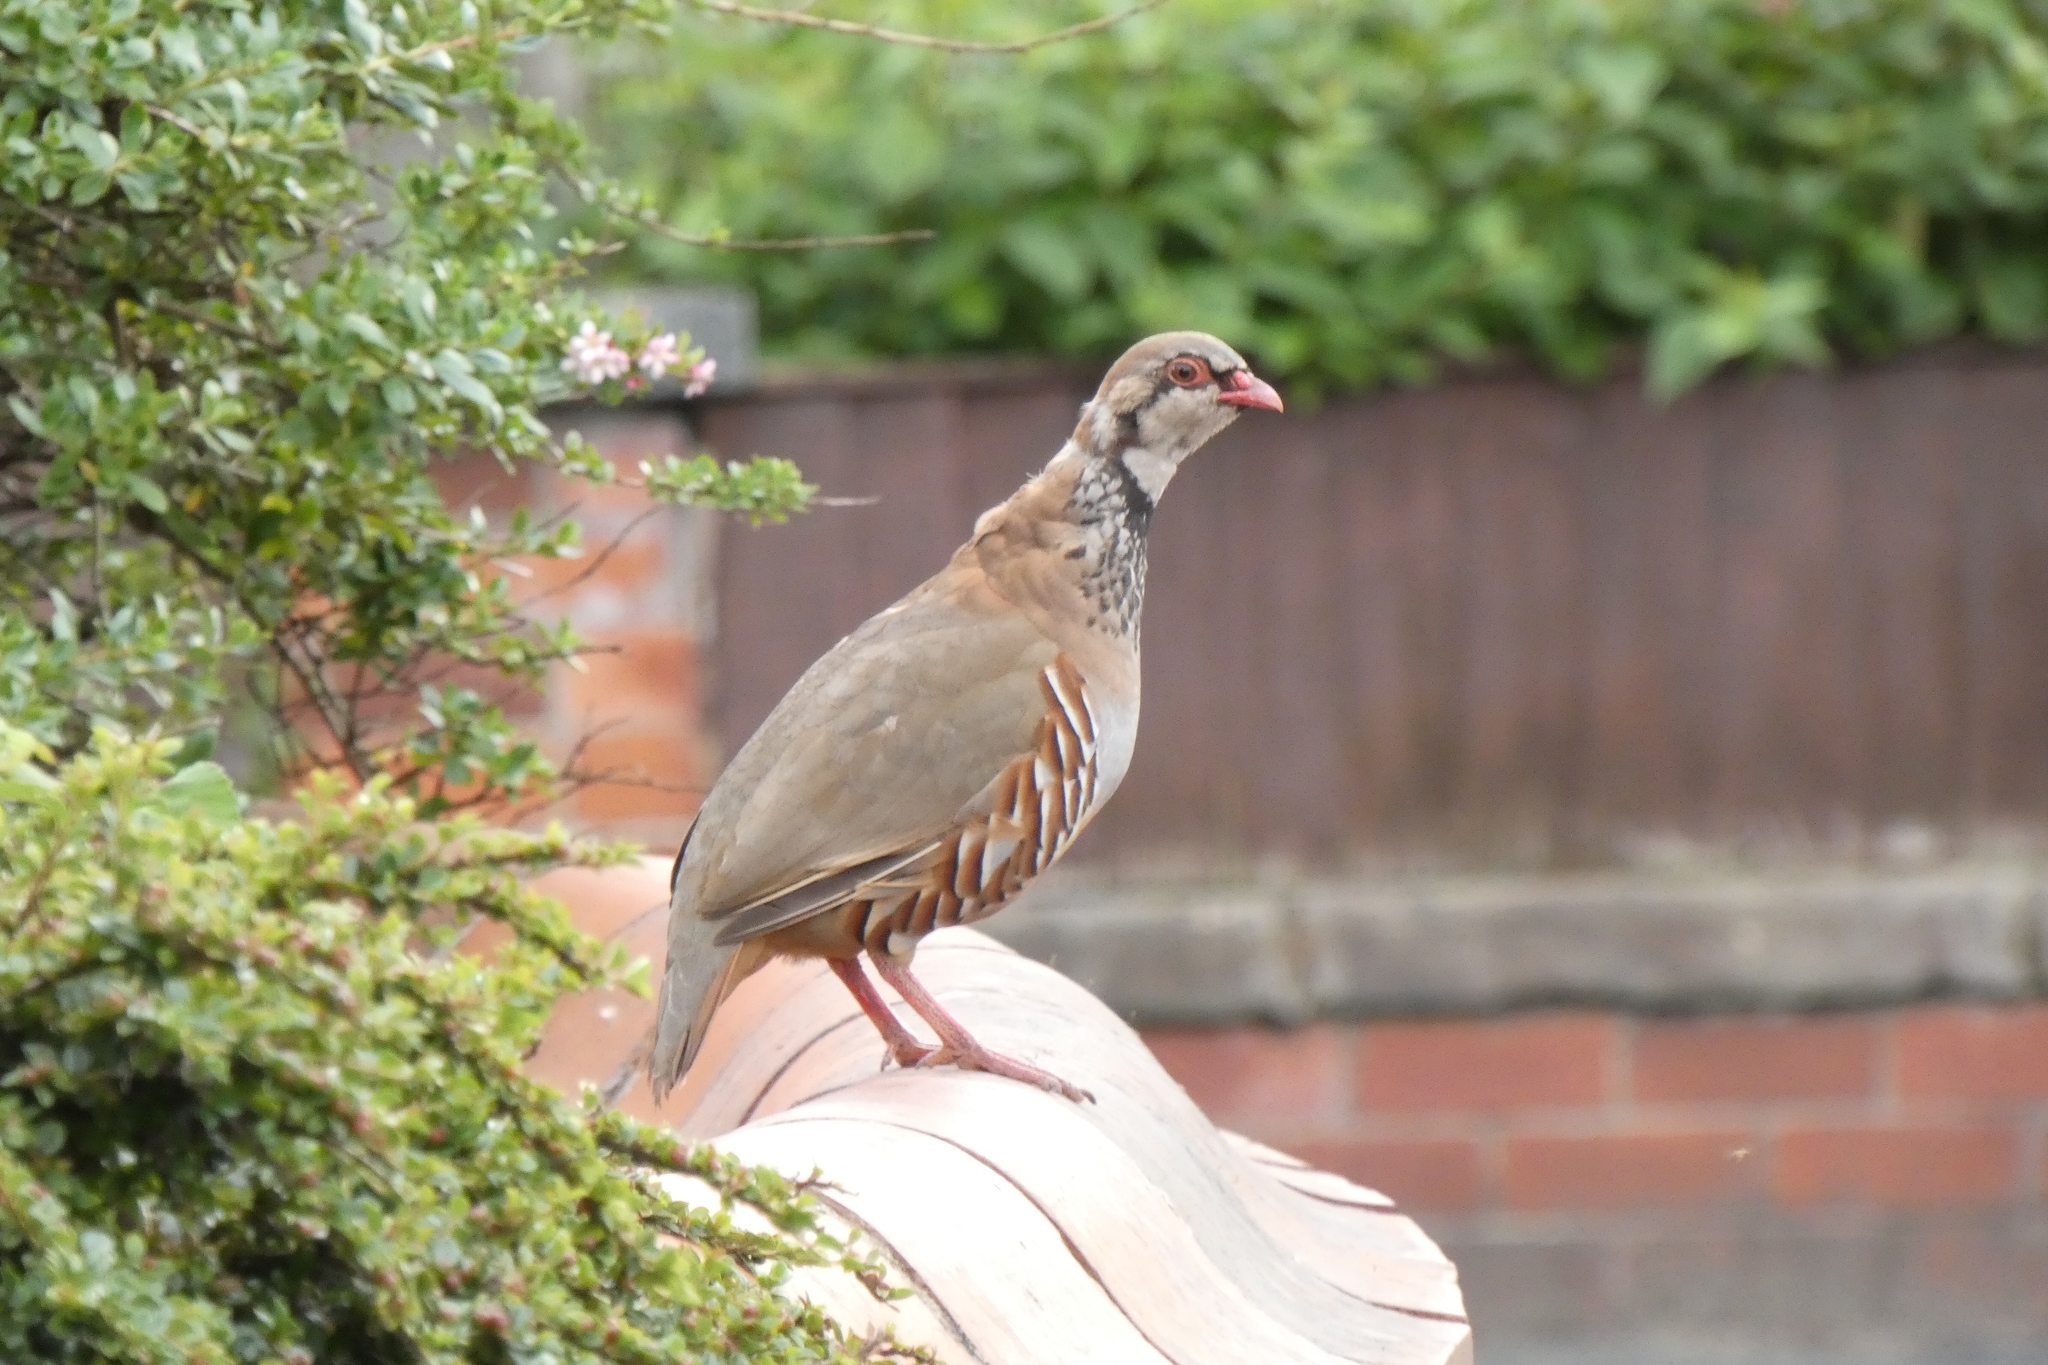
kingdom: Animalia
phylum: Chordata
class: Aves
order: Galliformes
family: Phasianidae
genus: Alectoris
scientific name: Alectoris rufa
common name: Red-legged partridge
